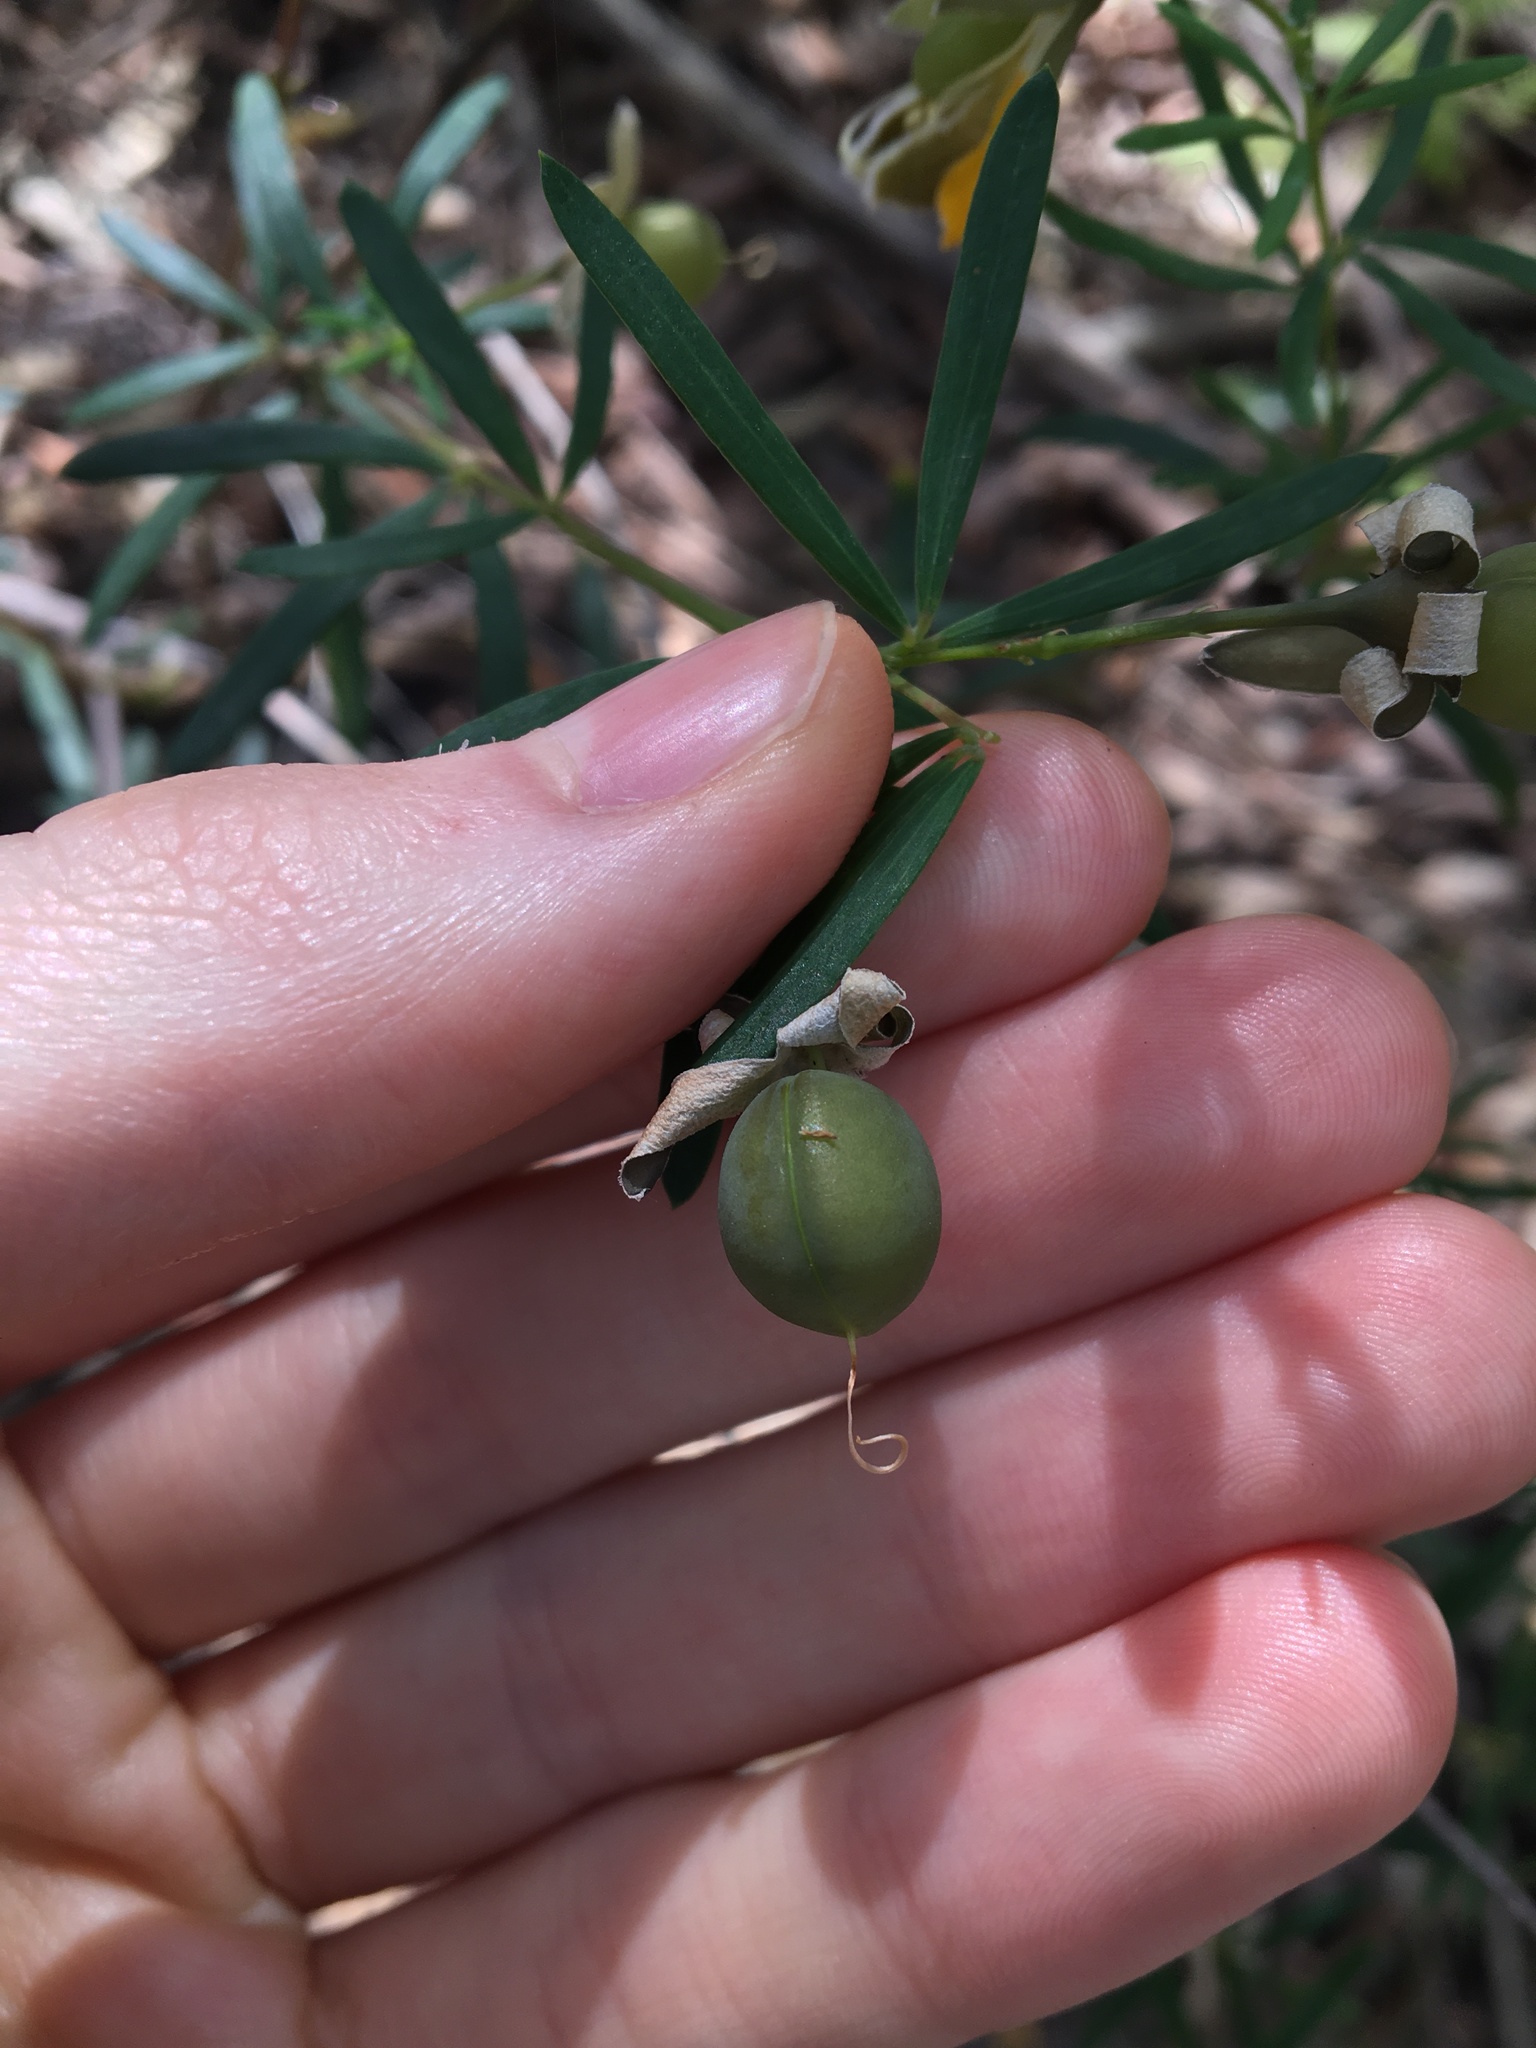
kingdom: Plantae
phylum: Tracheophyta
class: Magnoliopsida
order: Fabales
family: Fabaceae
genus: Gompholobium
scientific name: Gompholobium latifolium
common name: Broadleaf wedge-pea
